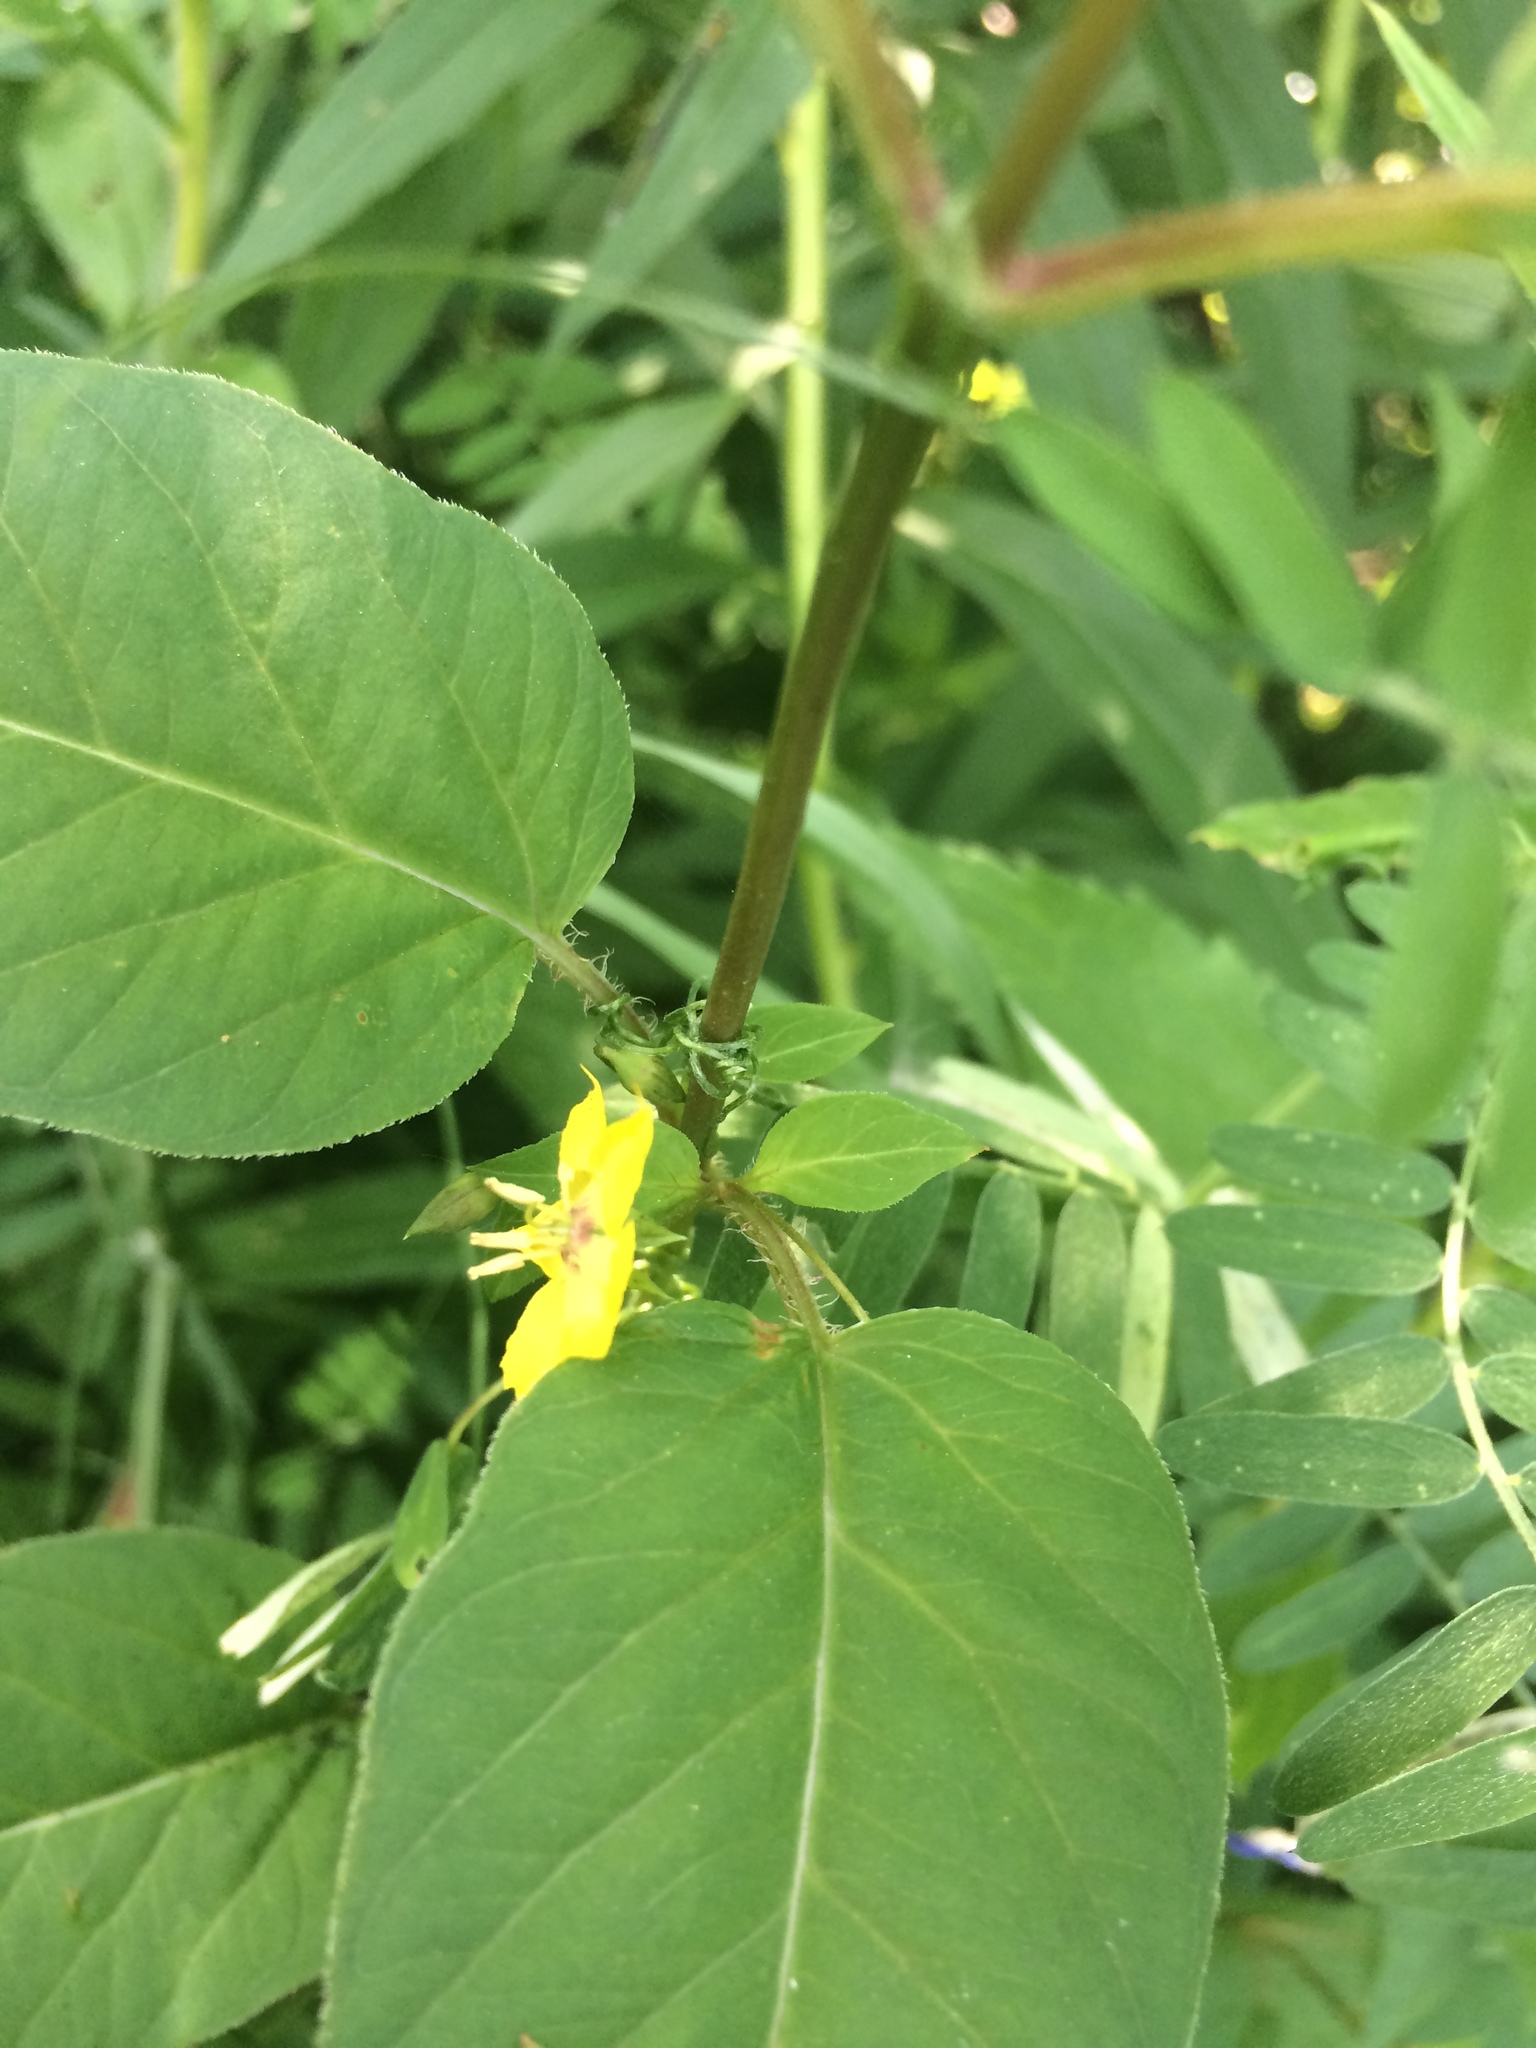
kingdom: Plantae
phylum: Tracheophyta
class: Magnoliopsida
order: Ericales
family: Primulaceae
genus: Lysimachia
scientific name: Lysimachia ciliata
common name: Fringed loosestrife
